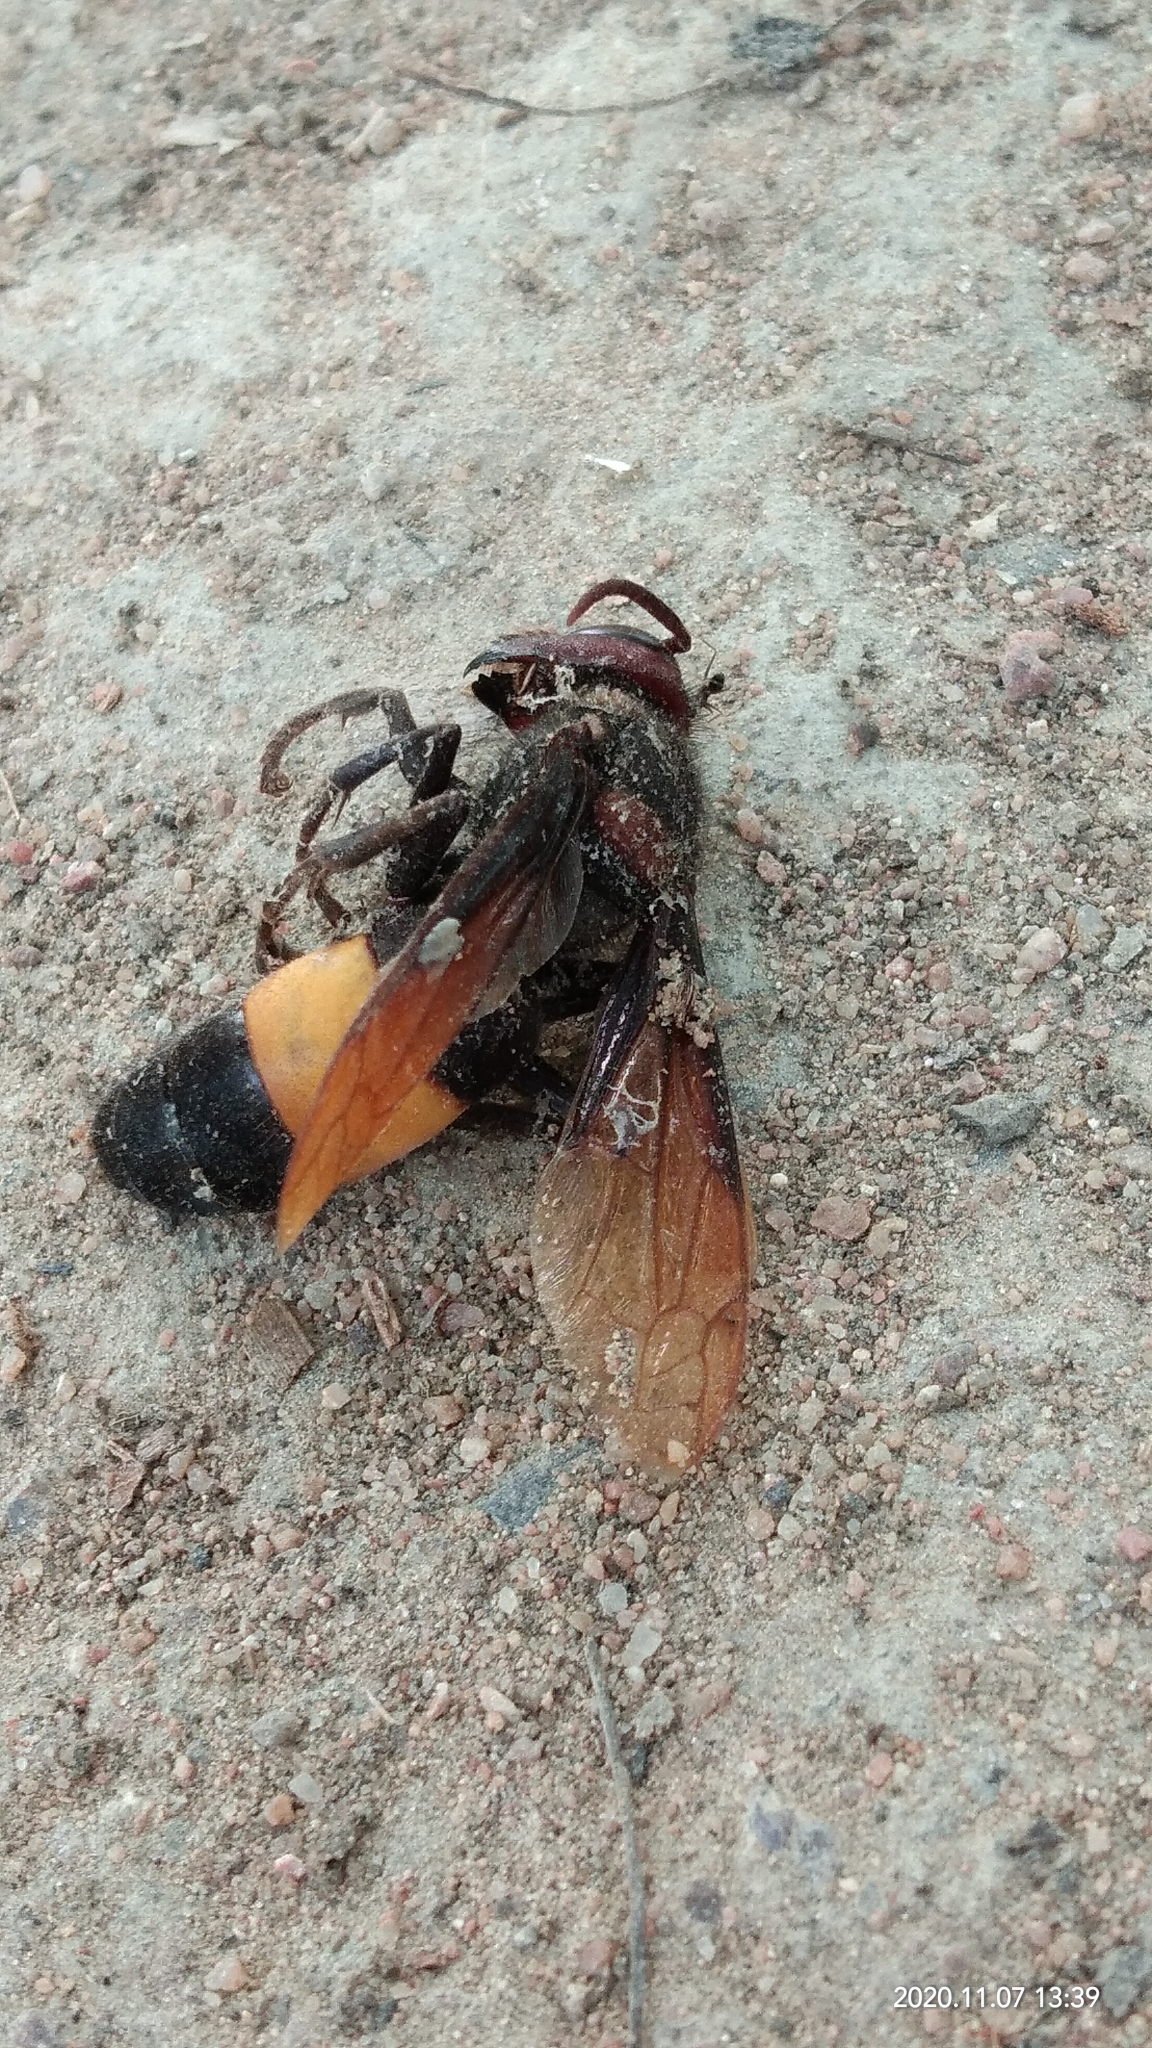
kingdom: Animalia
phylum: Arthropoda
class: Insecta
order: Hymenoptera
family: Vespidae
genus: Vespa
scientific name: Vespa tropica
